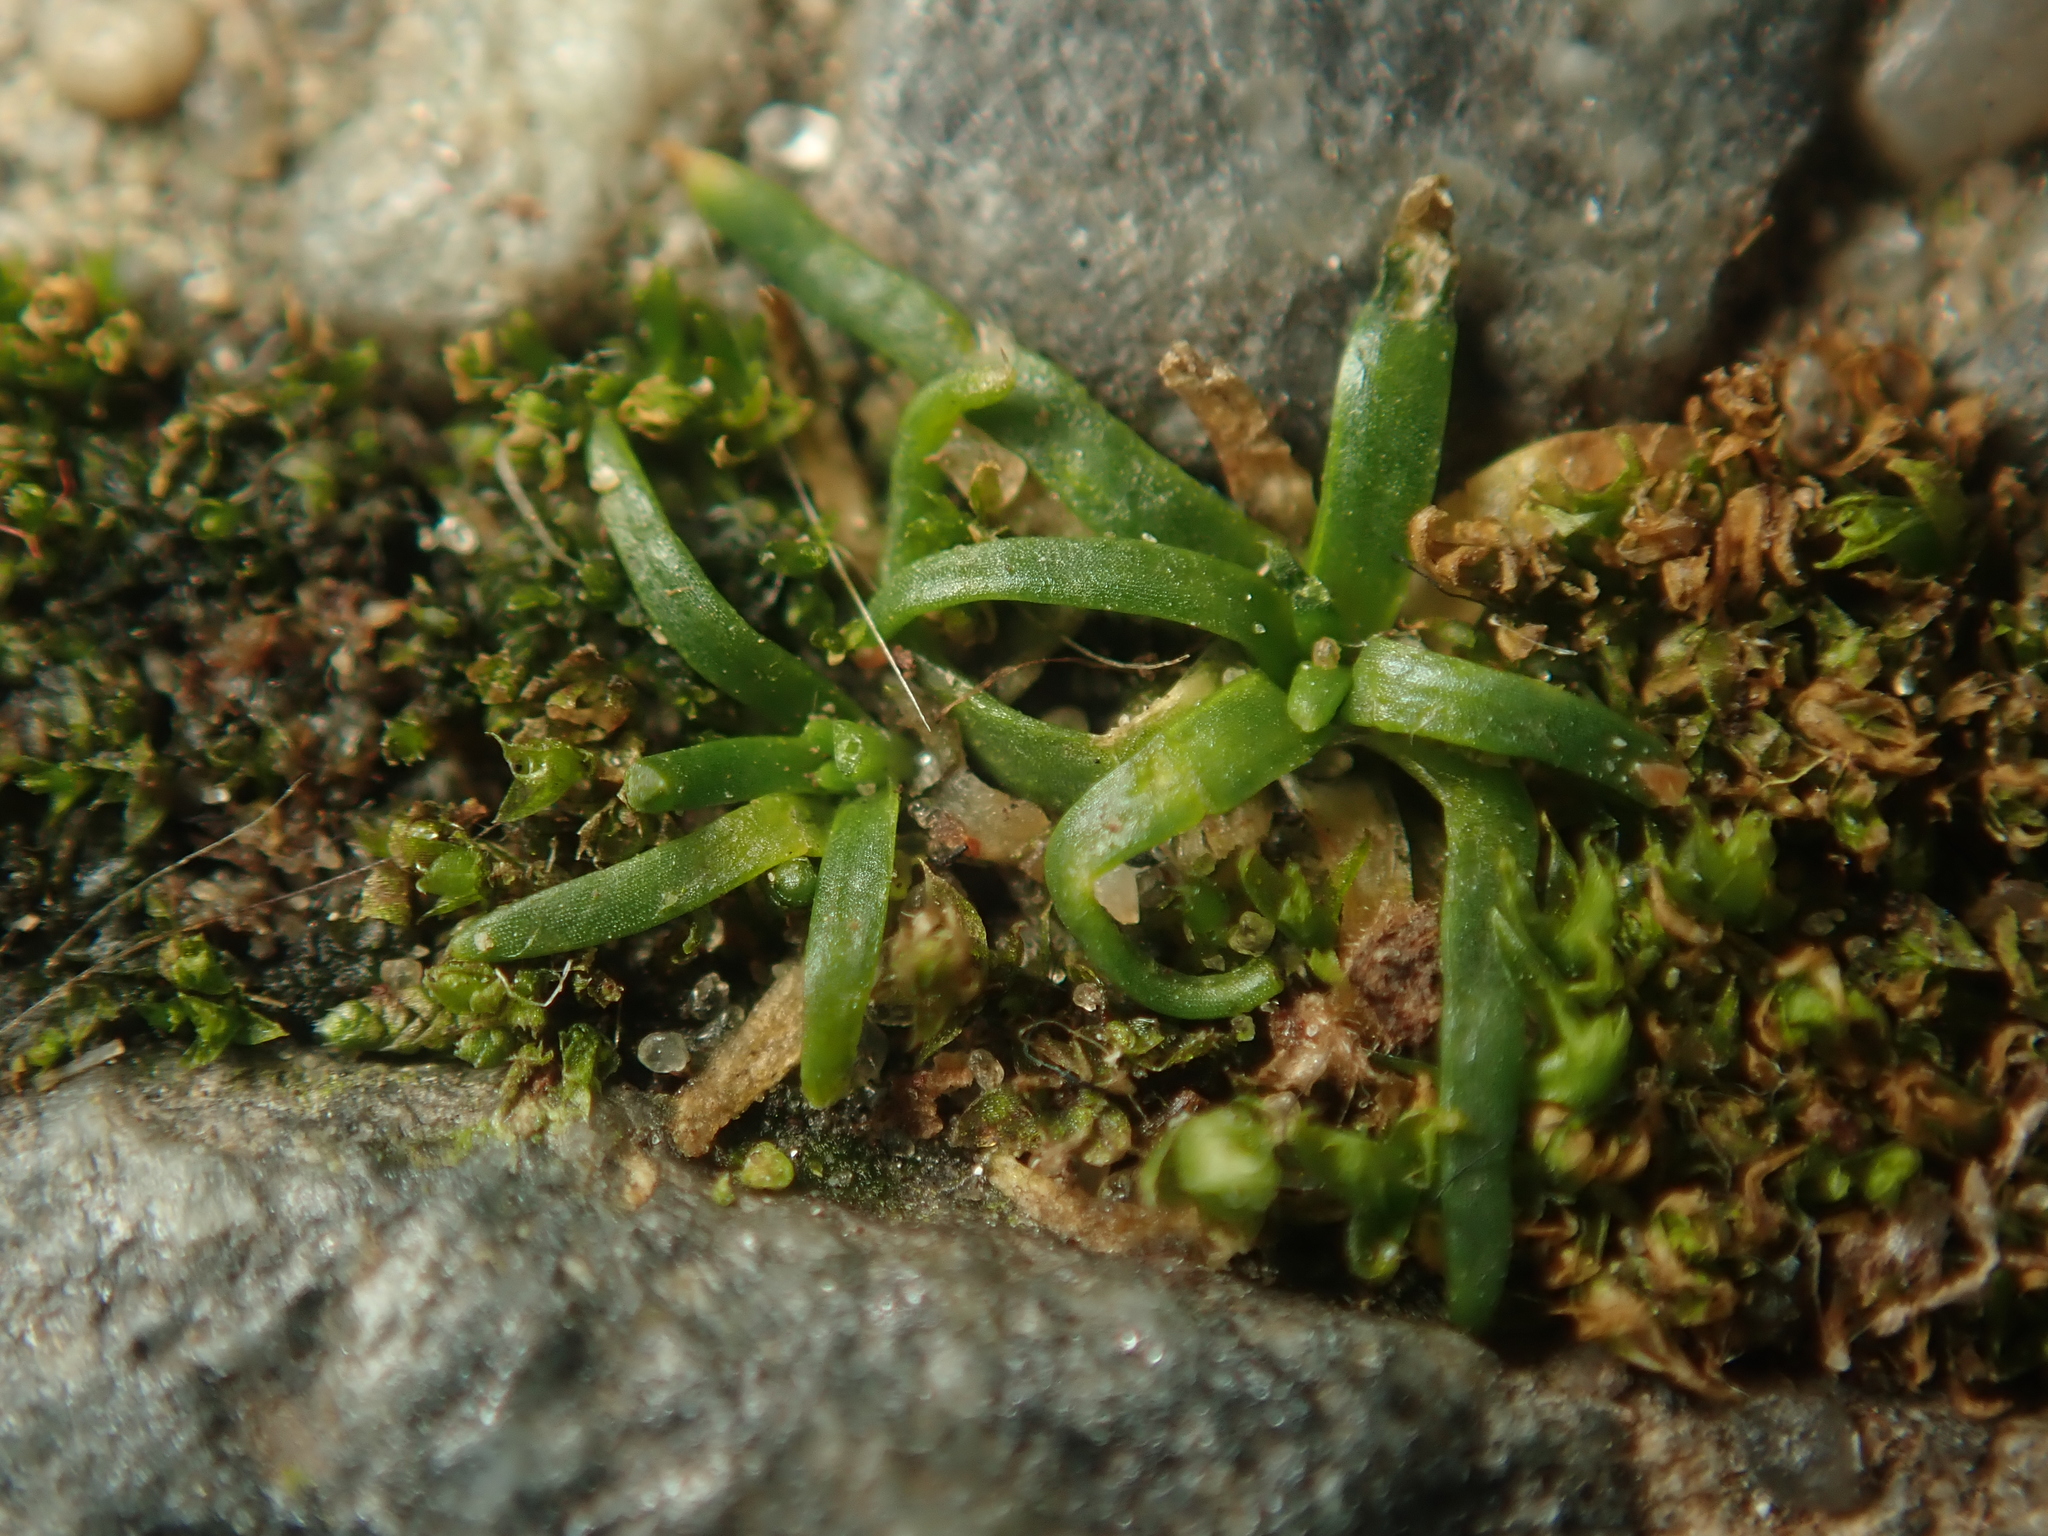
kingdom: Plantae
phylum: Tracheophyta
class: Magnoliopsida
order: Caryophyllales
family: Caryophyllaceae
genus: Sagina
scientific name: Sagina procumbens
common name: Procumbent pearlwort
